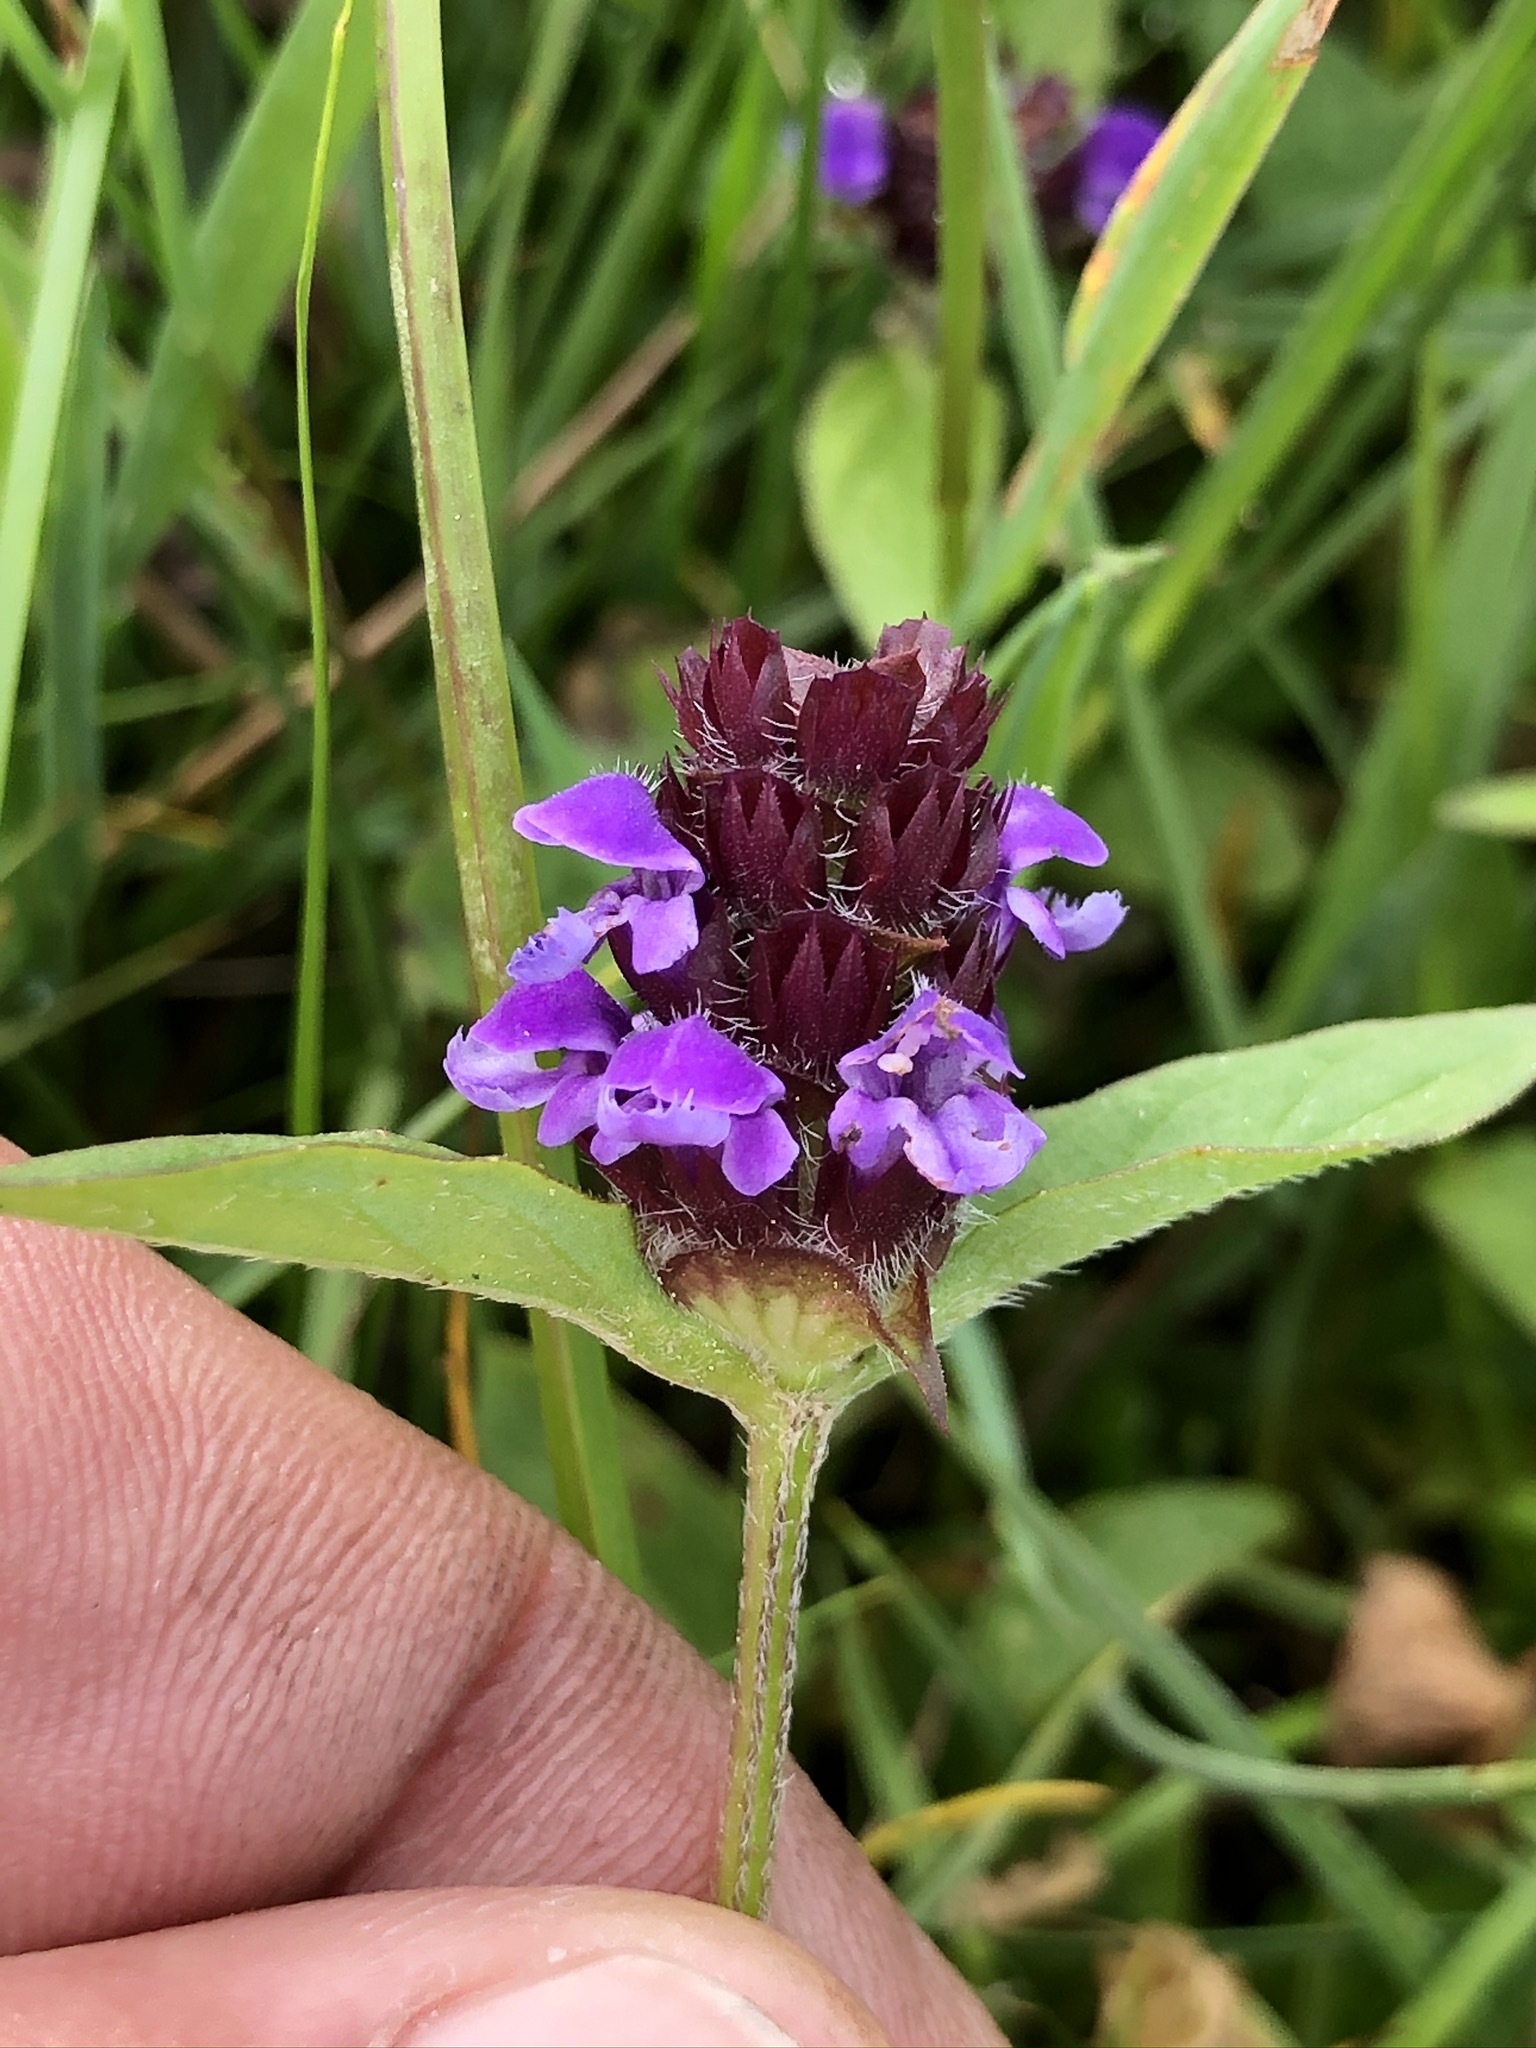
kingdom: Plantae
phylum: Tracheophyta
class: Magnoliopsida
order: Lamiales
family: Lamiaceae
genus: Prunella
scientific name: Prunella vulgaris
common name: Heal-all
